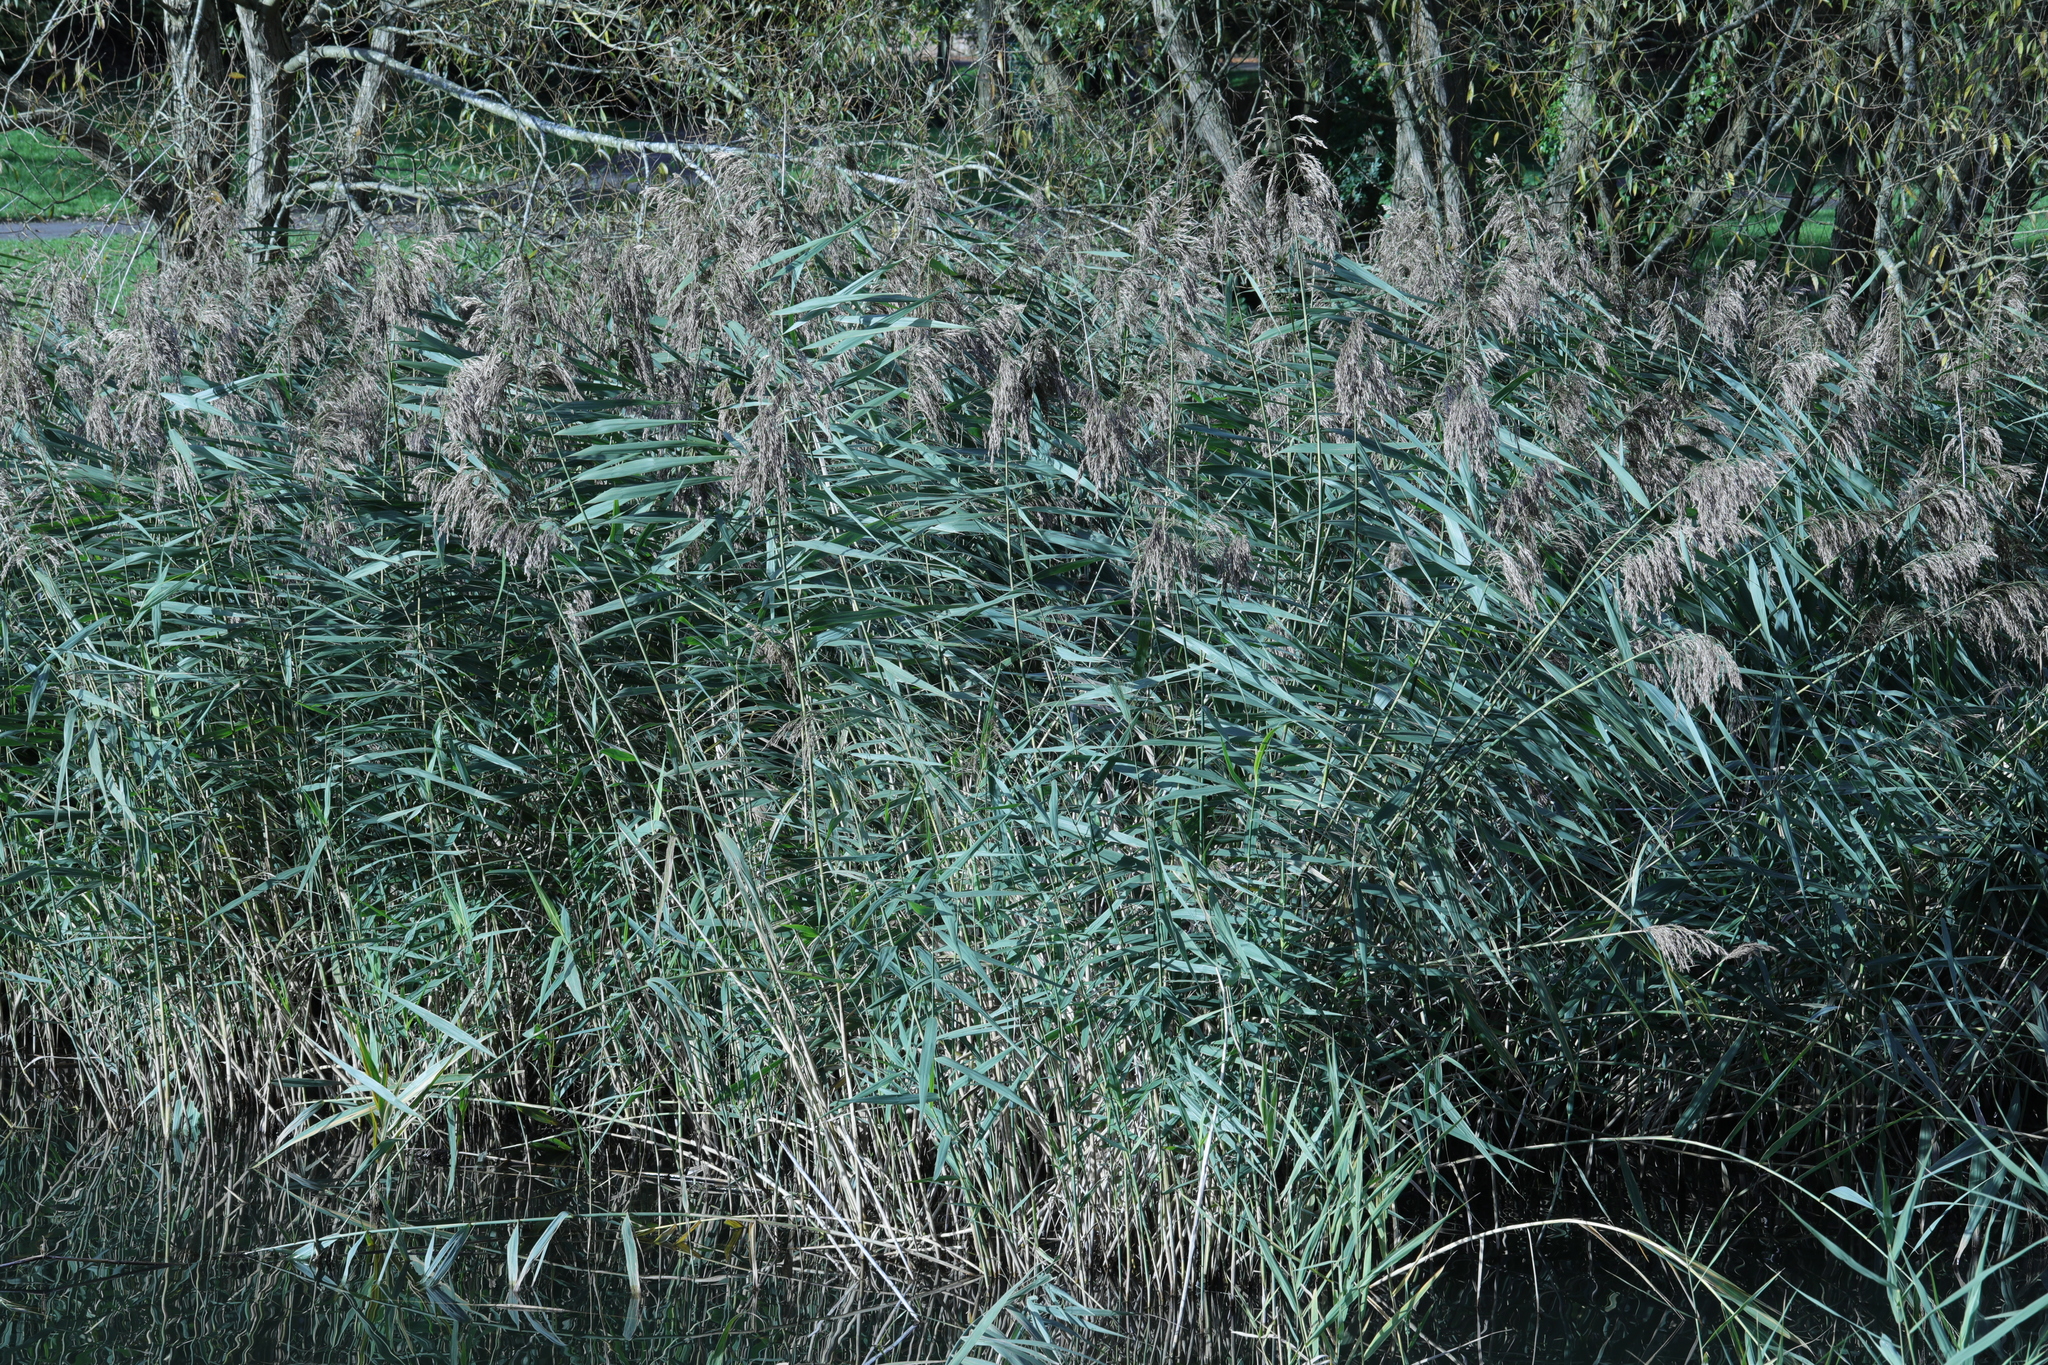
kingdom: Plantae
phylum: Tracheophyta
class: Liliopsida
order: Poales
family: Poaceae
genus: Phragmites
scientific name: Phragmites australis
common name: Common reed
